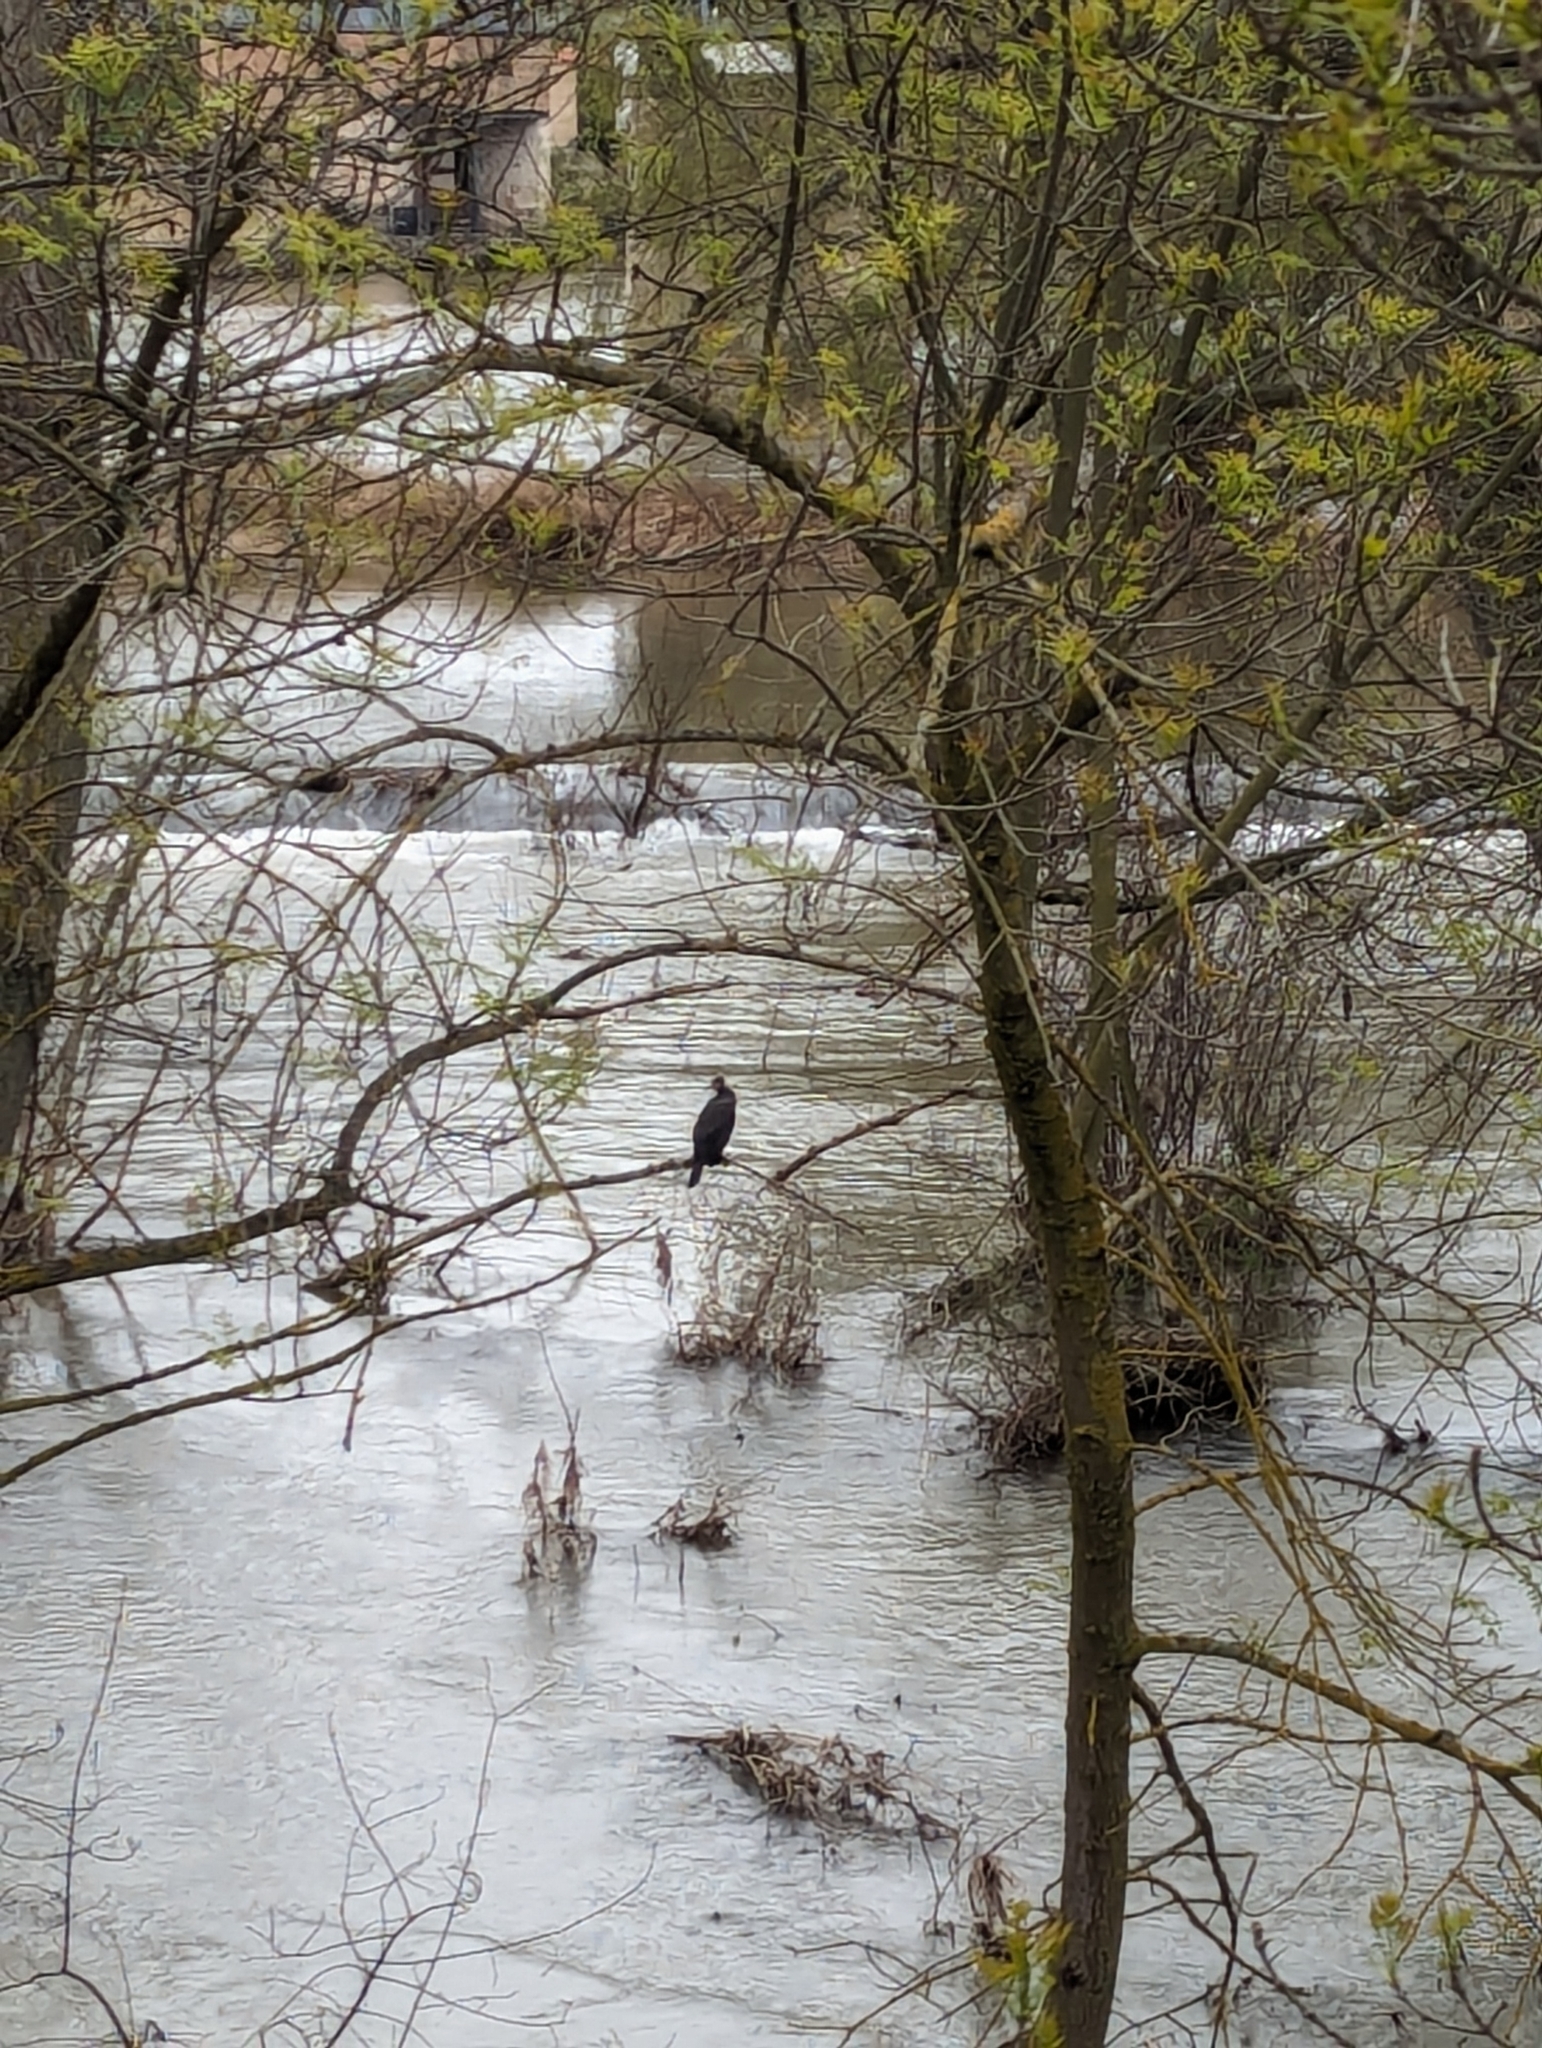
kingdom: Animalia
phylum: Chordata
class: Aves
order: Suliformes
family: Phalacrocoracidae
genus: Phalacrocorax
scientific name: Phalacrocorax carbo
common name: Great cormorant
